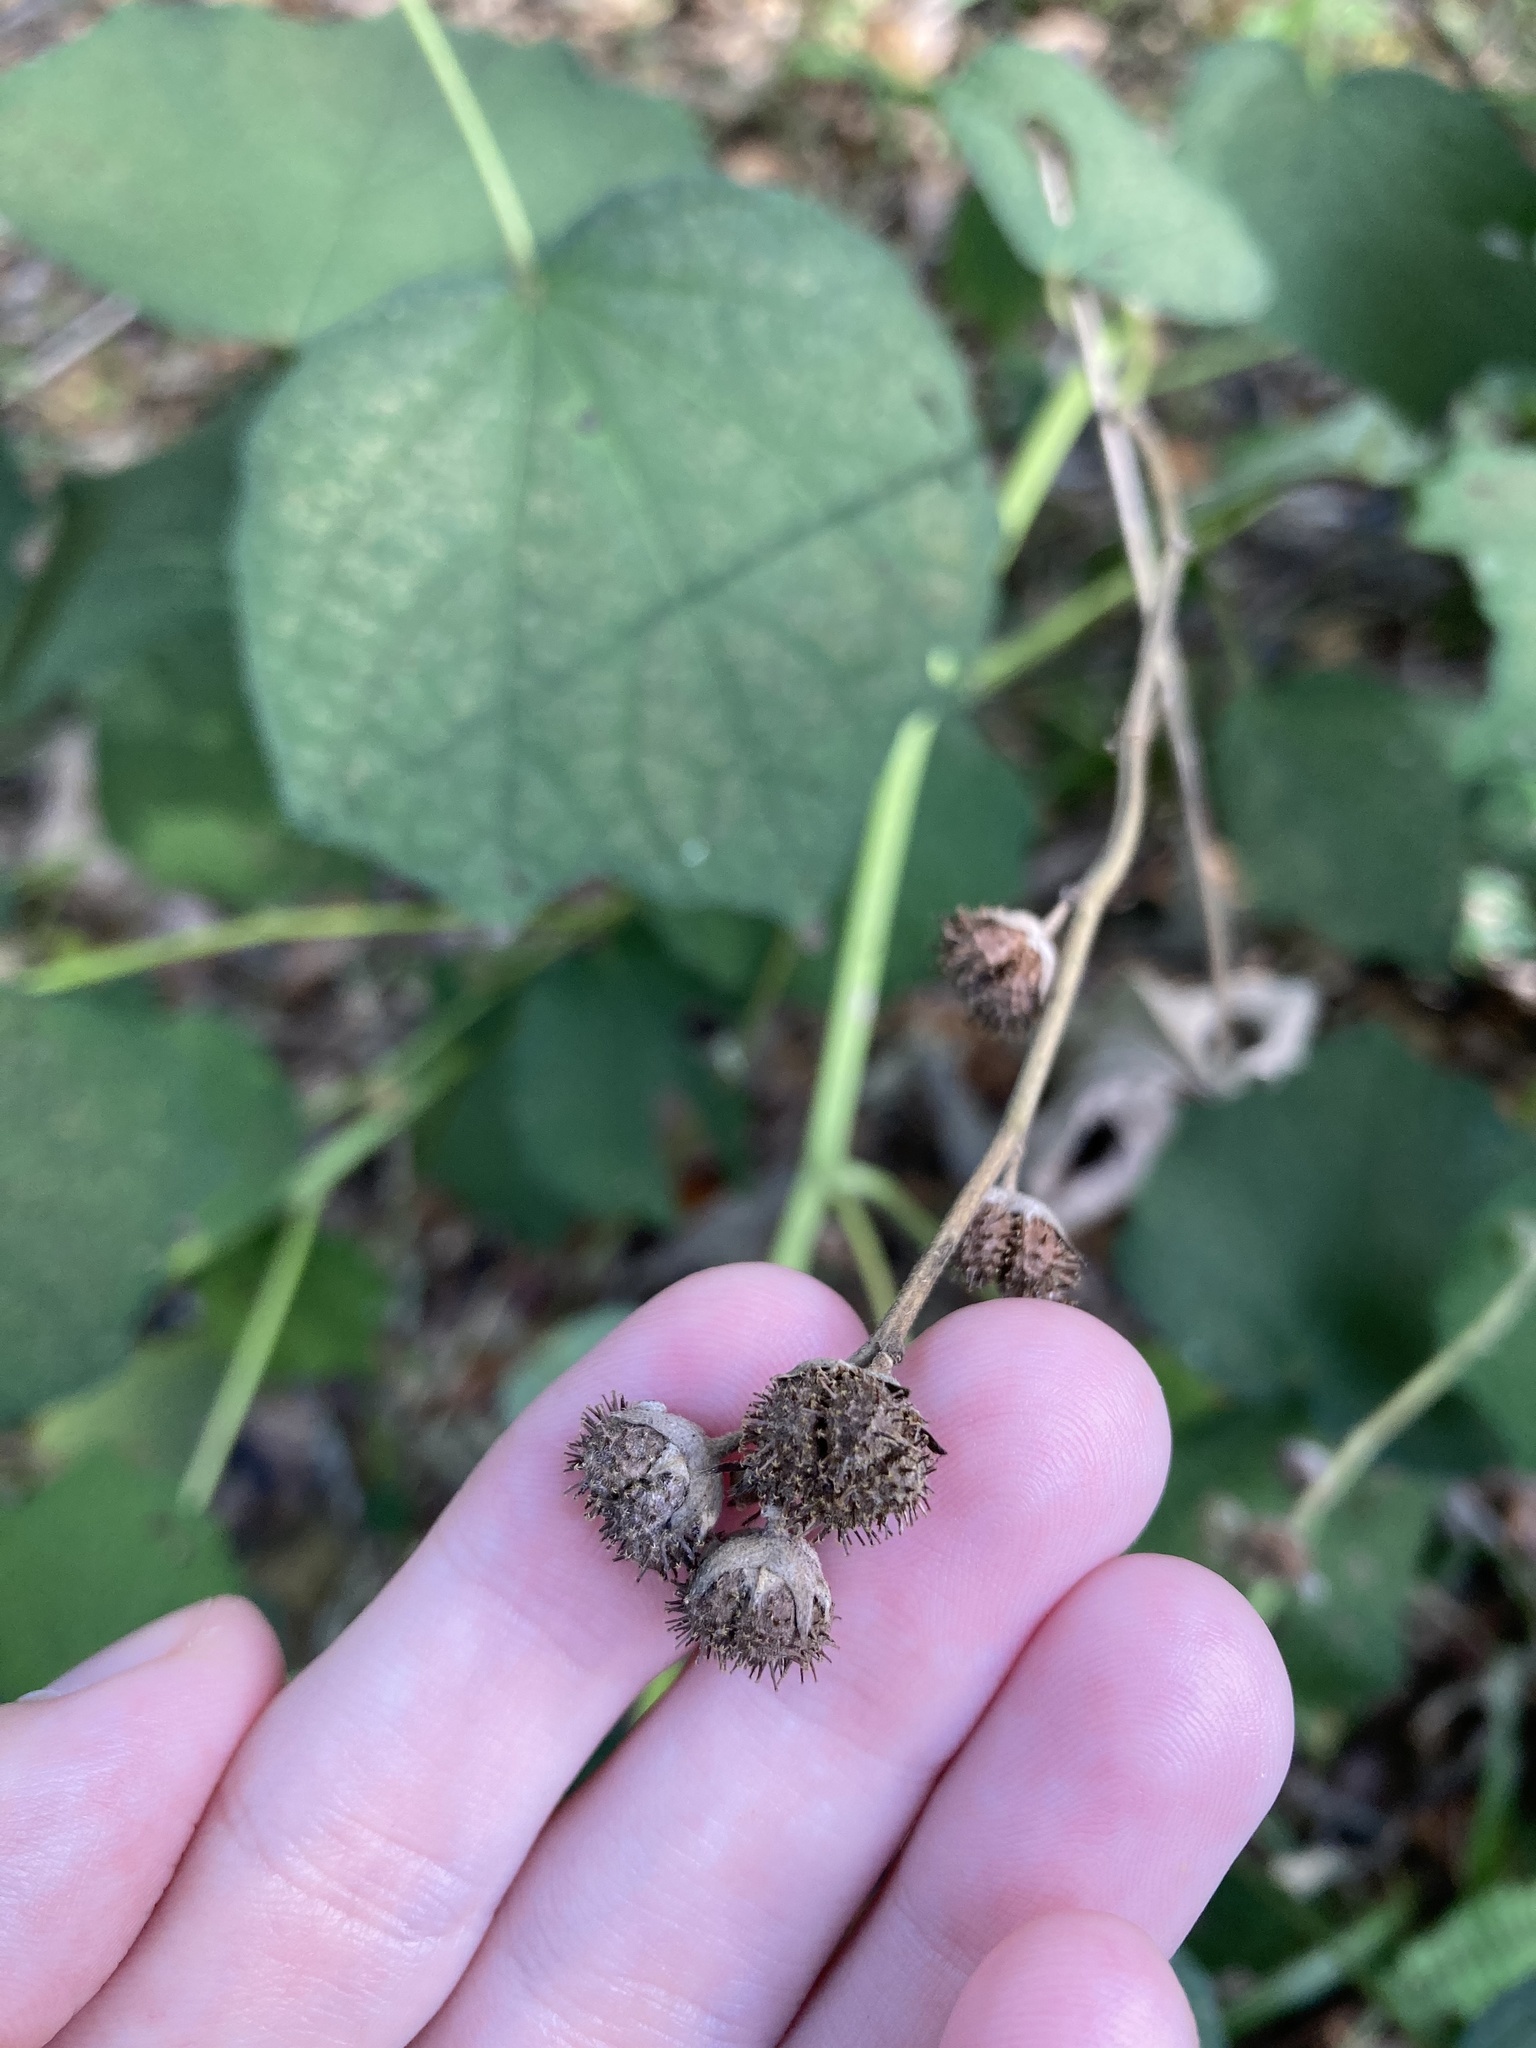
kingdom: Plantae
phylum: Tracheophyta
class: Magnoliopsida
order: Malvales
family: Malvaceae
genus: Urena
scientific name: Urena lobata
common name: Caesarweed
